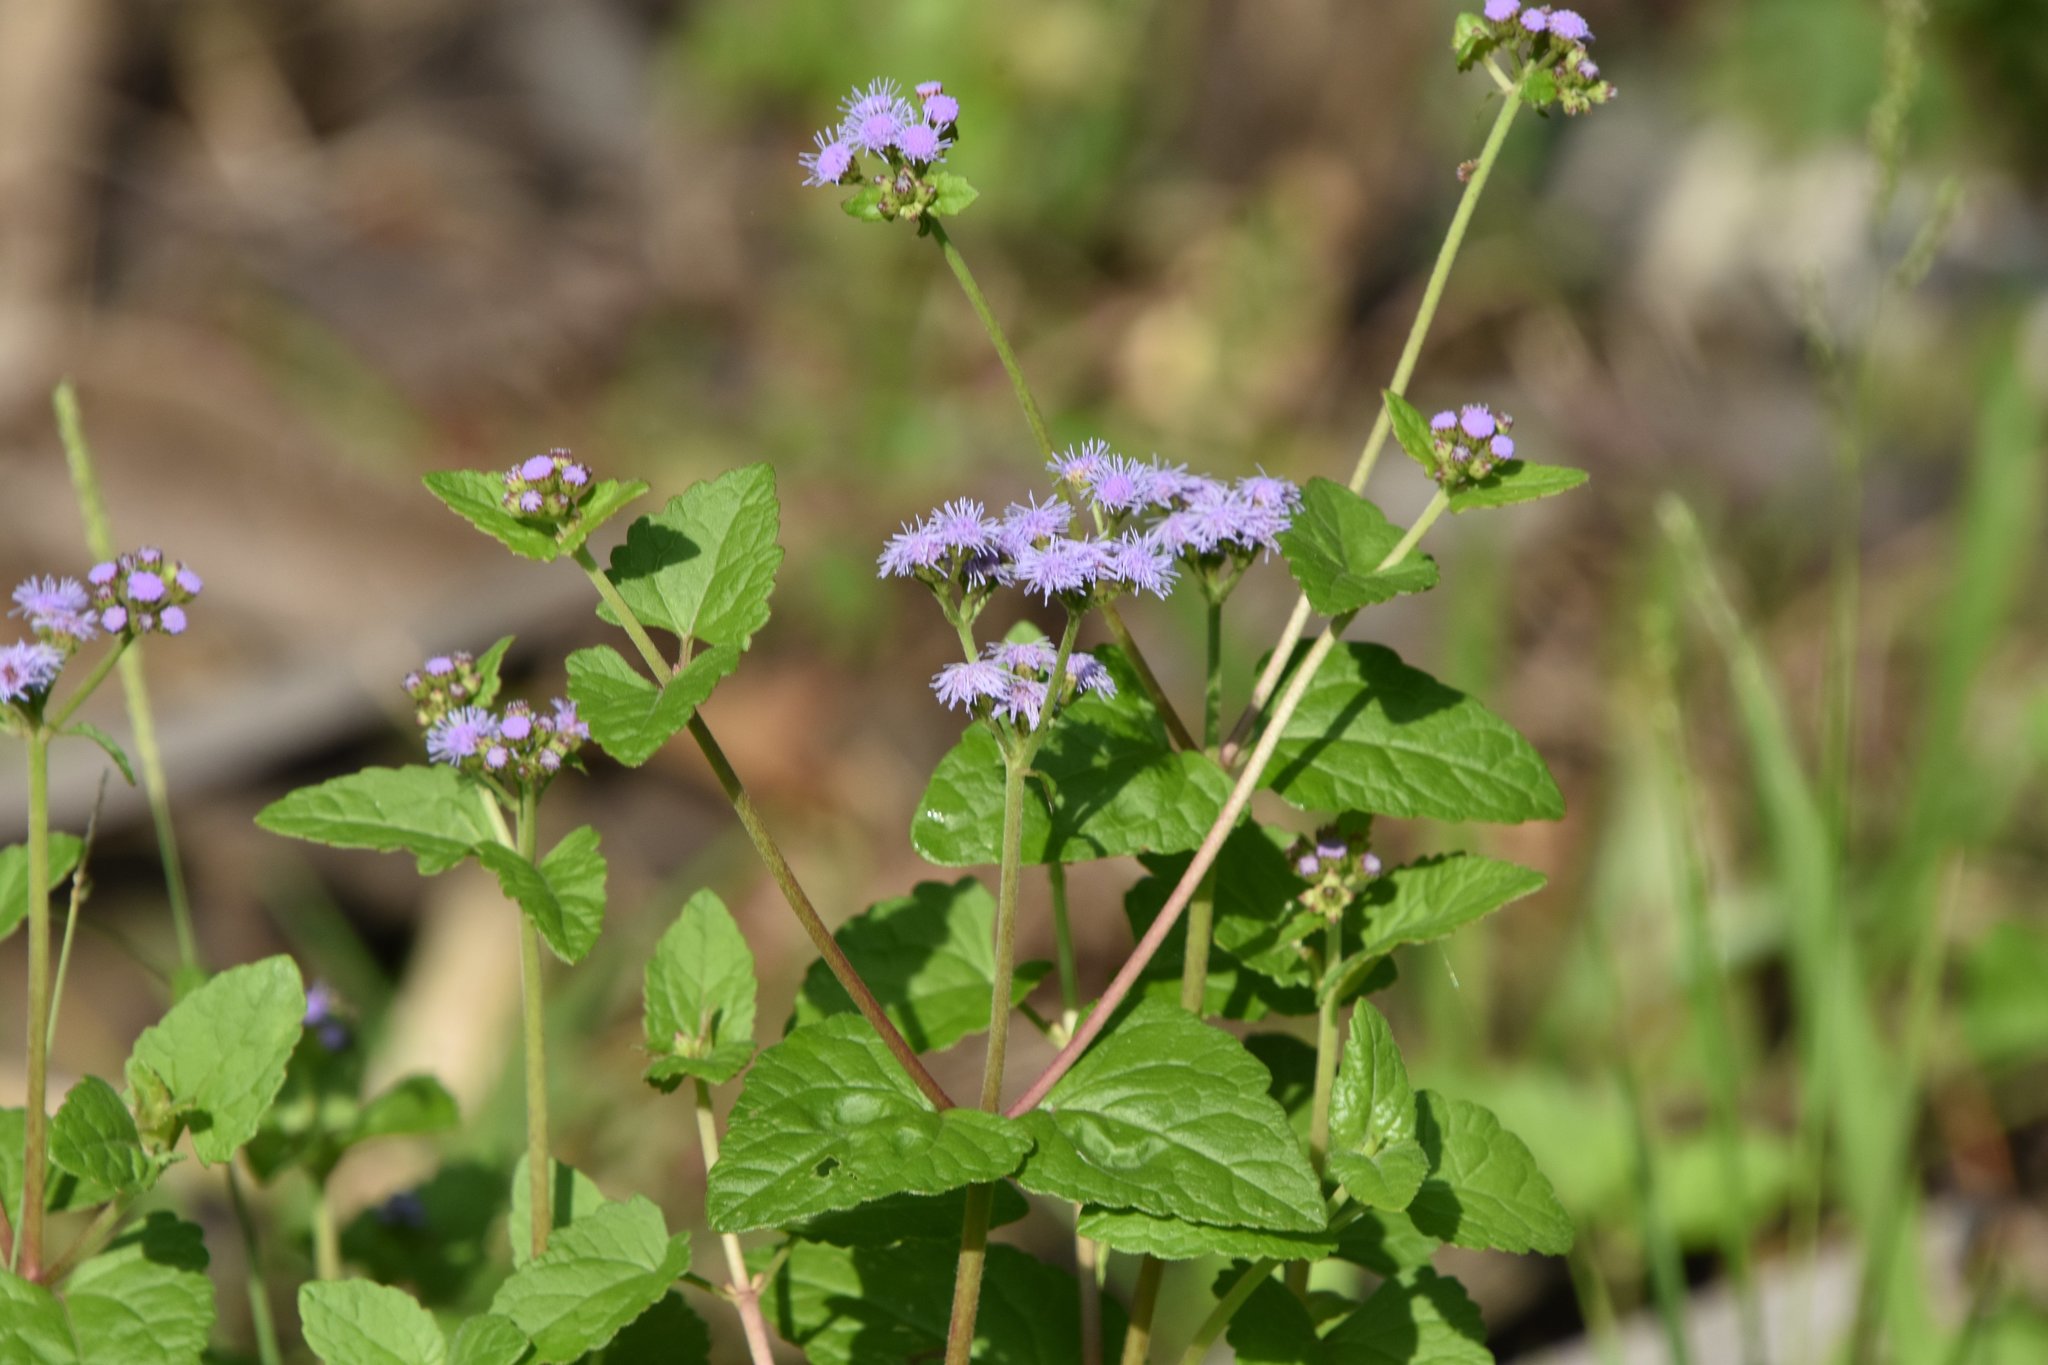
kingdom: Plantae
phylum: Tracheophyta
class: Magnoliopsida
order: Asterales
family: Asteraceae
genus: Conoclinium
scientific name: Conoclinium coelestinum
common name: Blue mistflower
